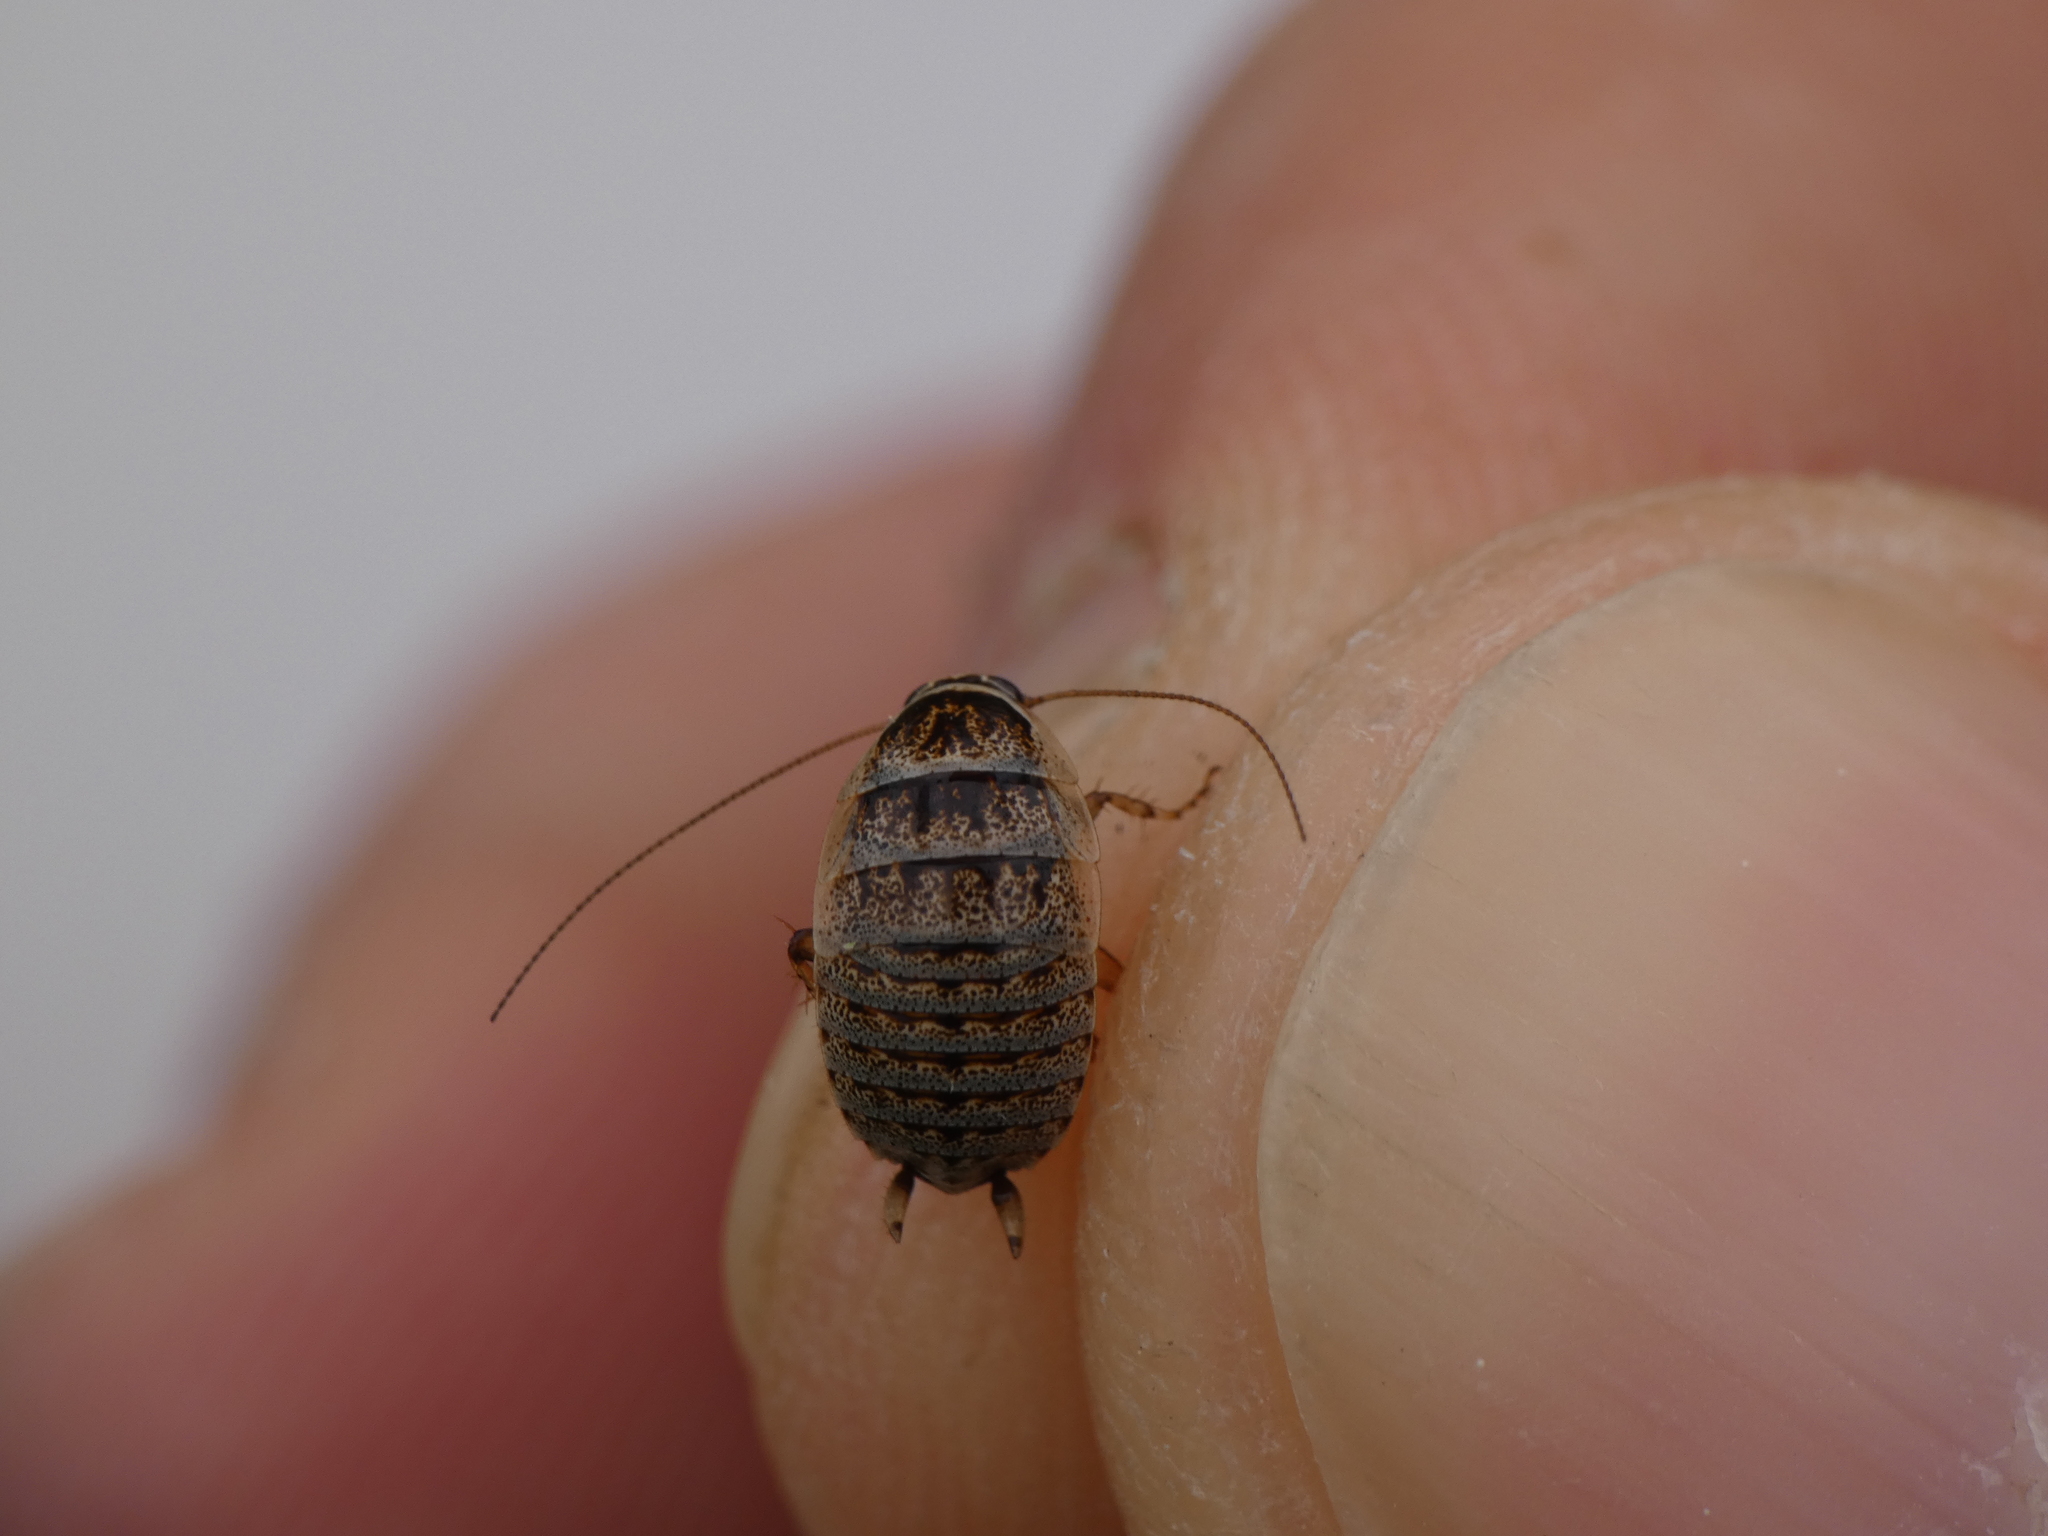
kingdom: Animalia
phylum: Arthropoda
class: Insecta
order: Blattodea
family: Ectobiidae
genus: Phyllodromica
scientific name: Phyllodromica subaptera
